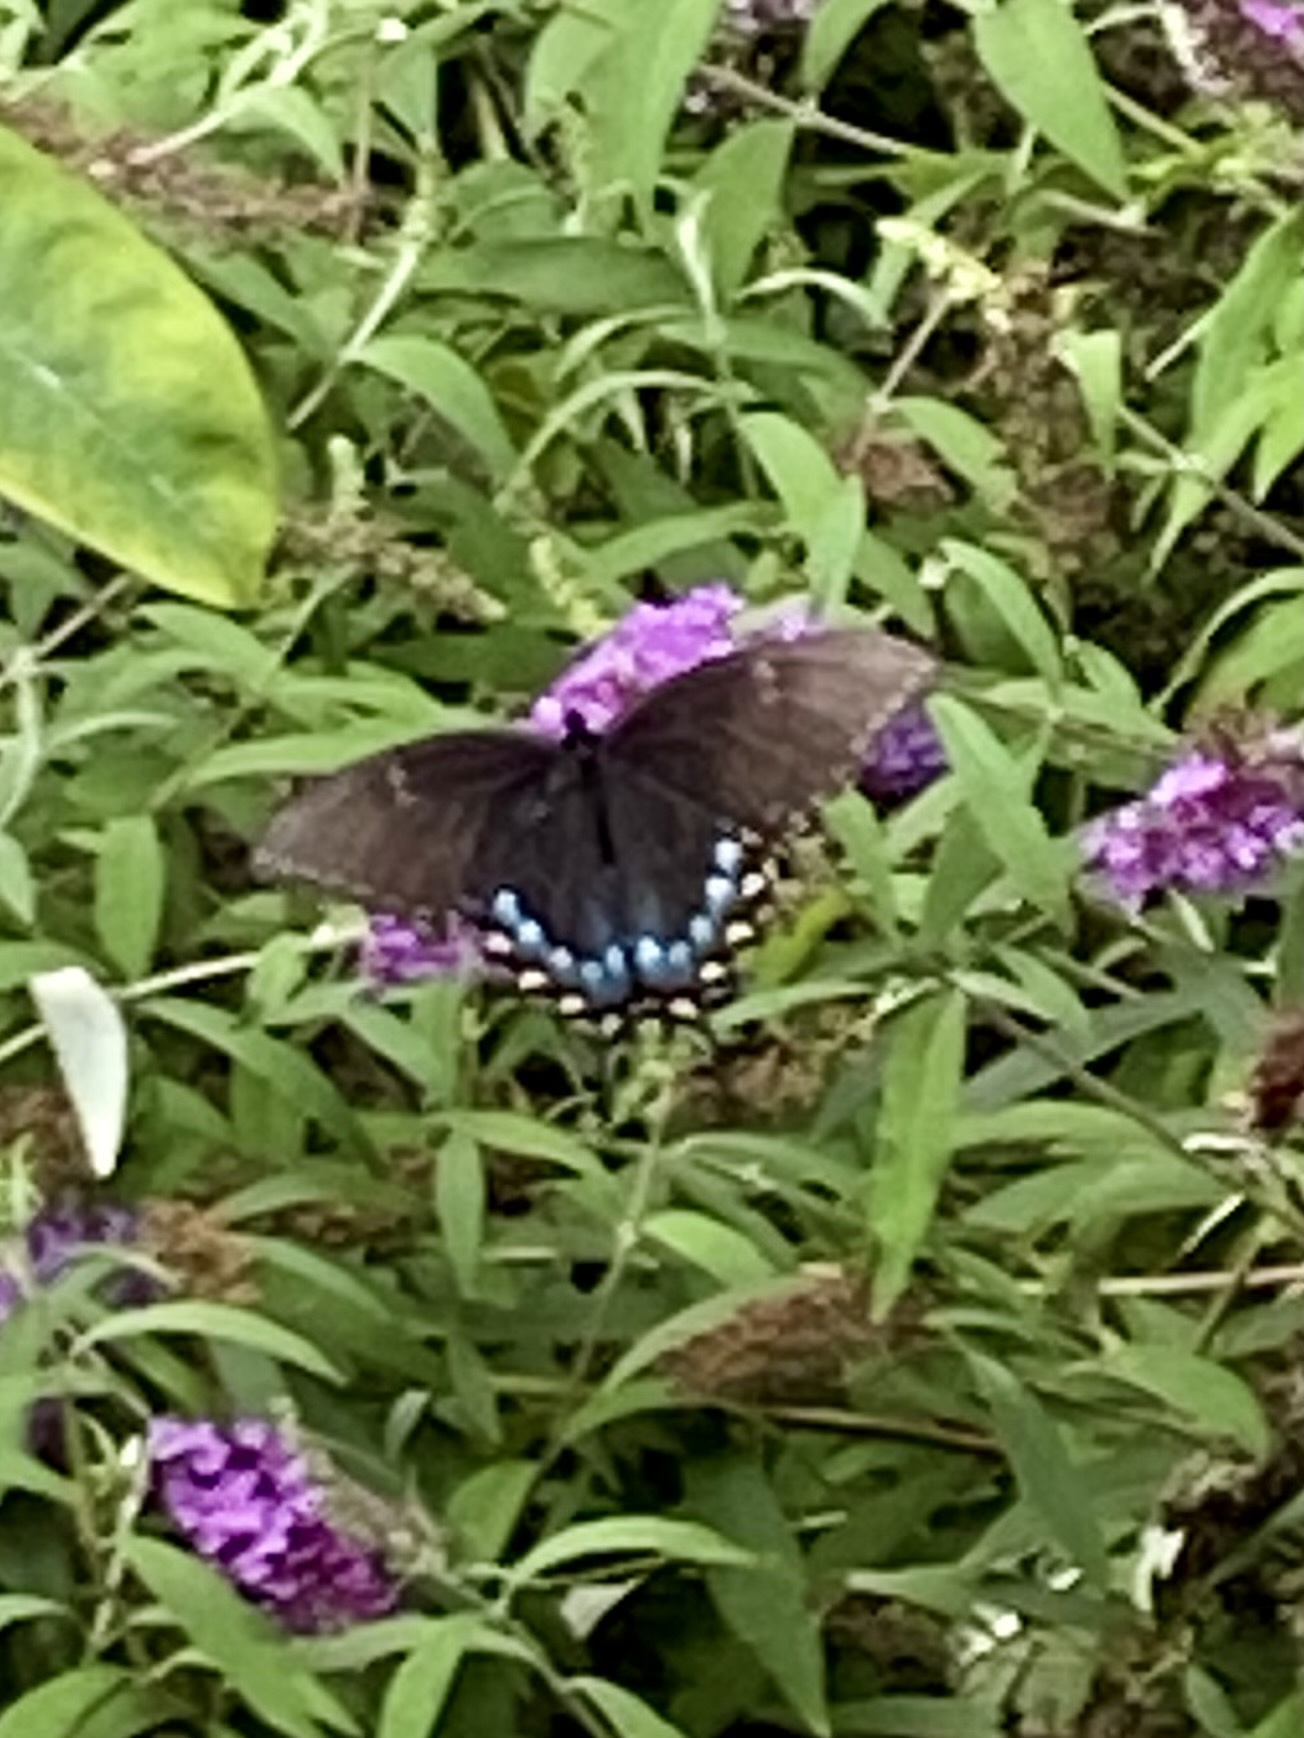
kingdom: Animalia
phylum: Arthropoda
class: Insecta
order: Lepidoptera
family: Papilionidae
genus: Papilio
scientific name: Papilio glaucus
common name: Tiger swallowtail
